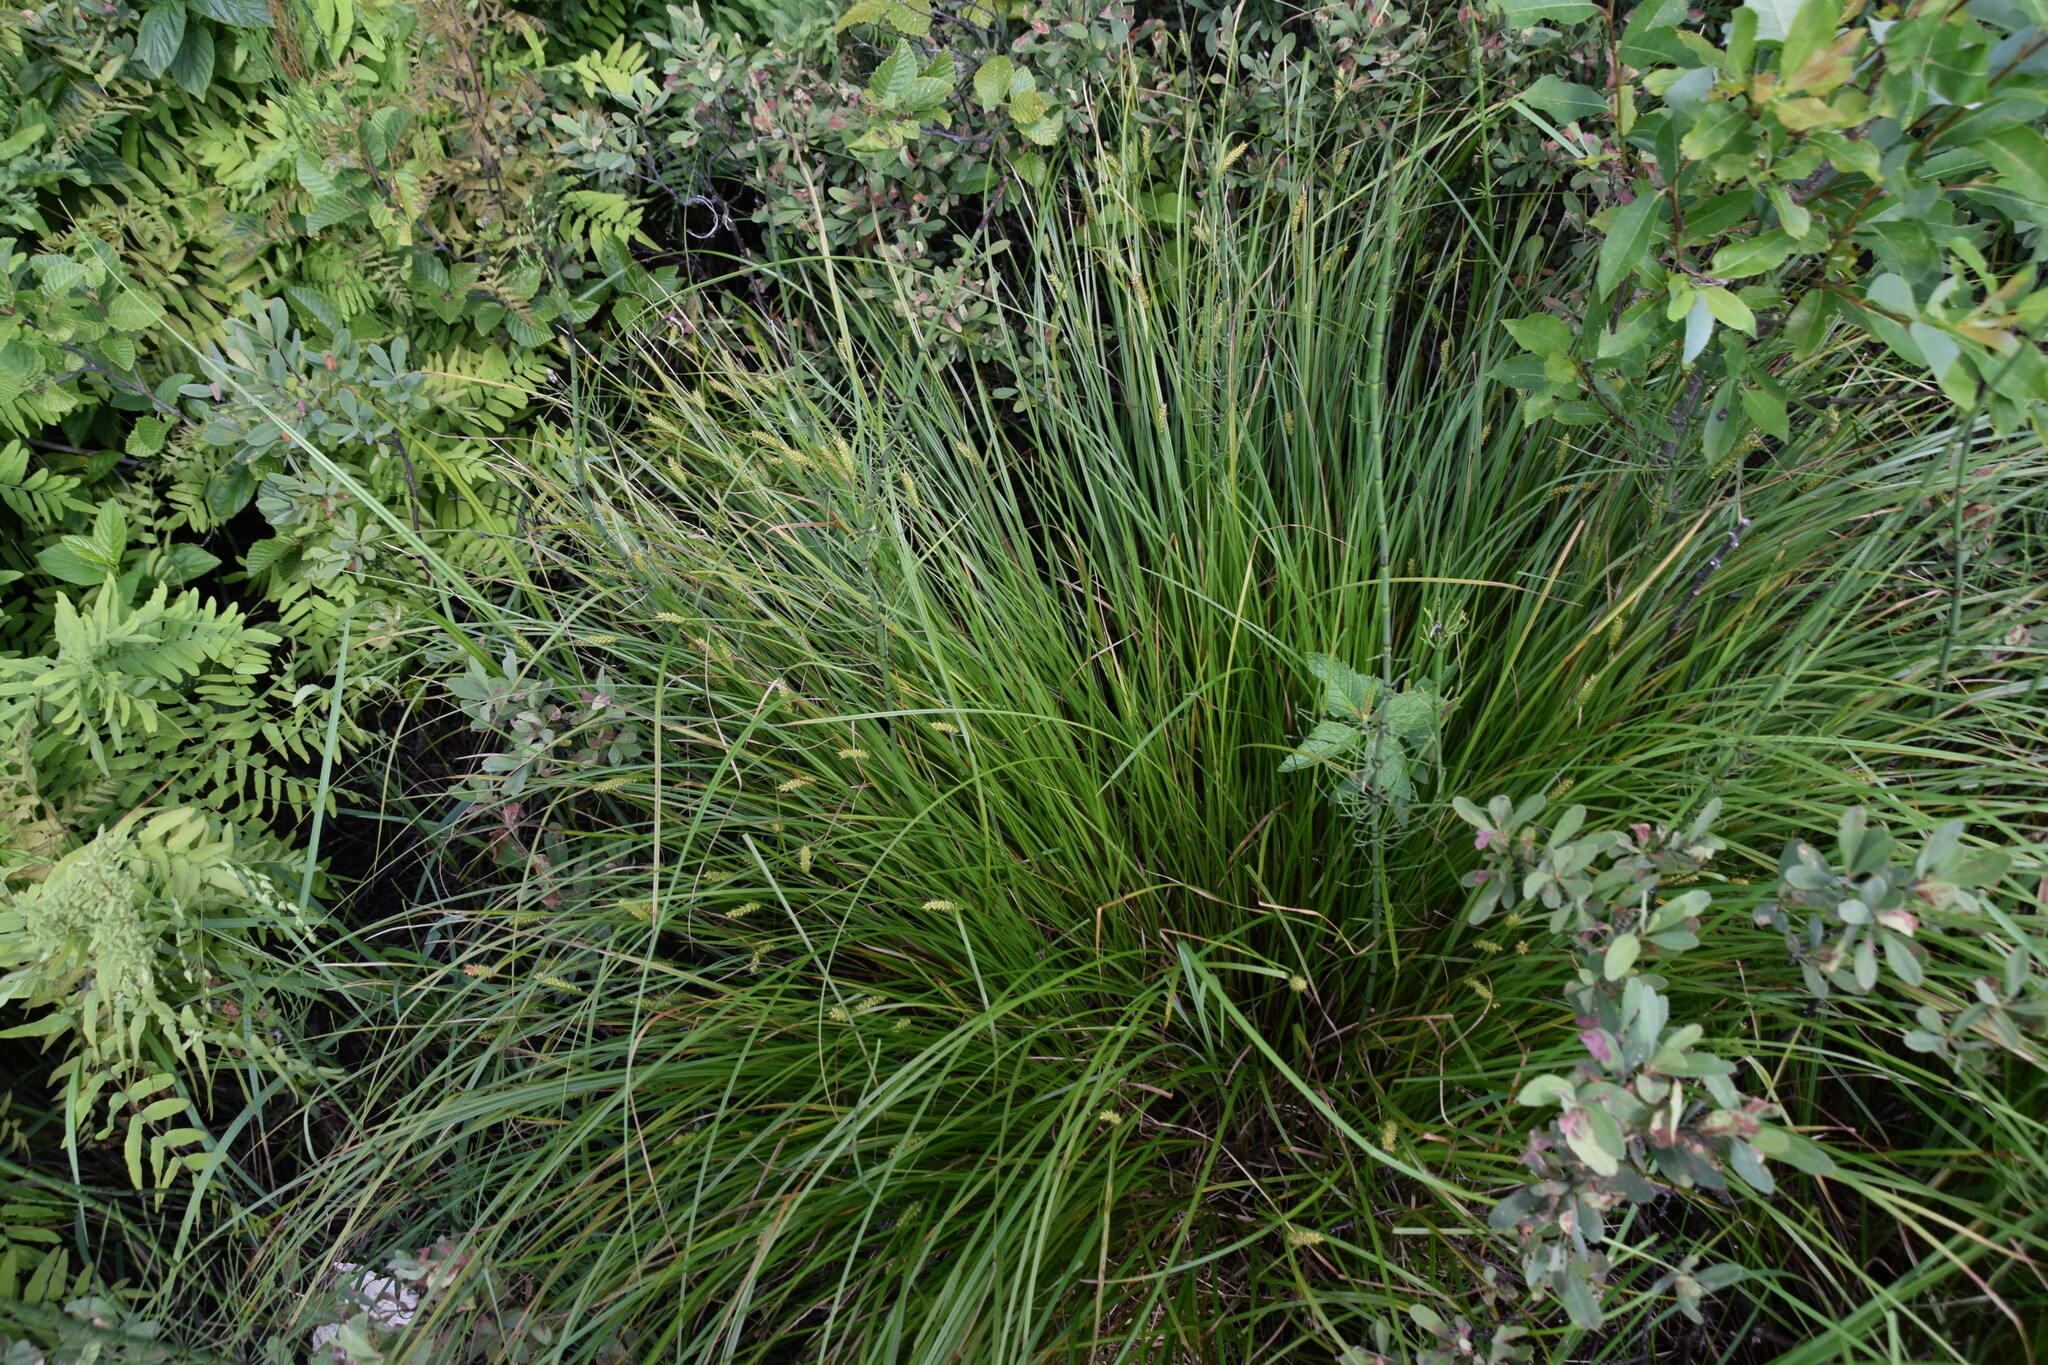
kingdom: Plantae
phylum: Tracheophyta
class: Liliopsida
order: Poales
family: Cyperaceae
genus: Carex
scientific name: Carex vesicaria
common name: Bladder-sedge
